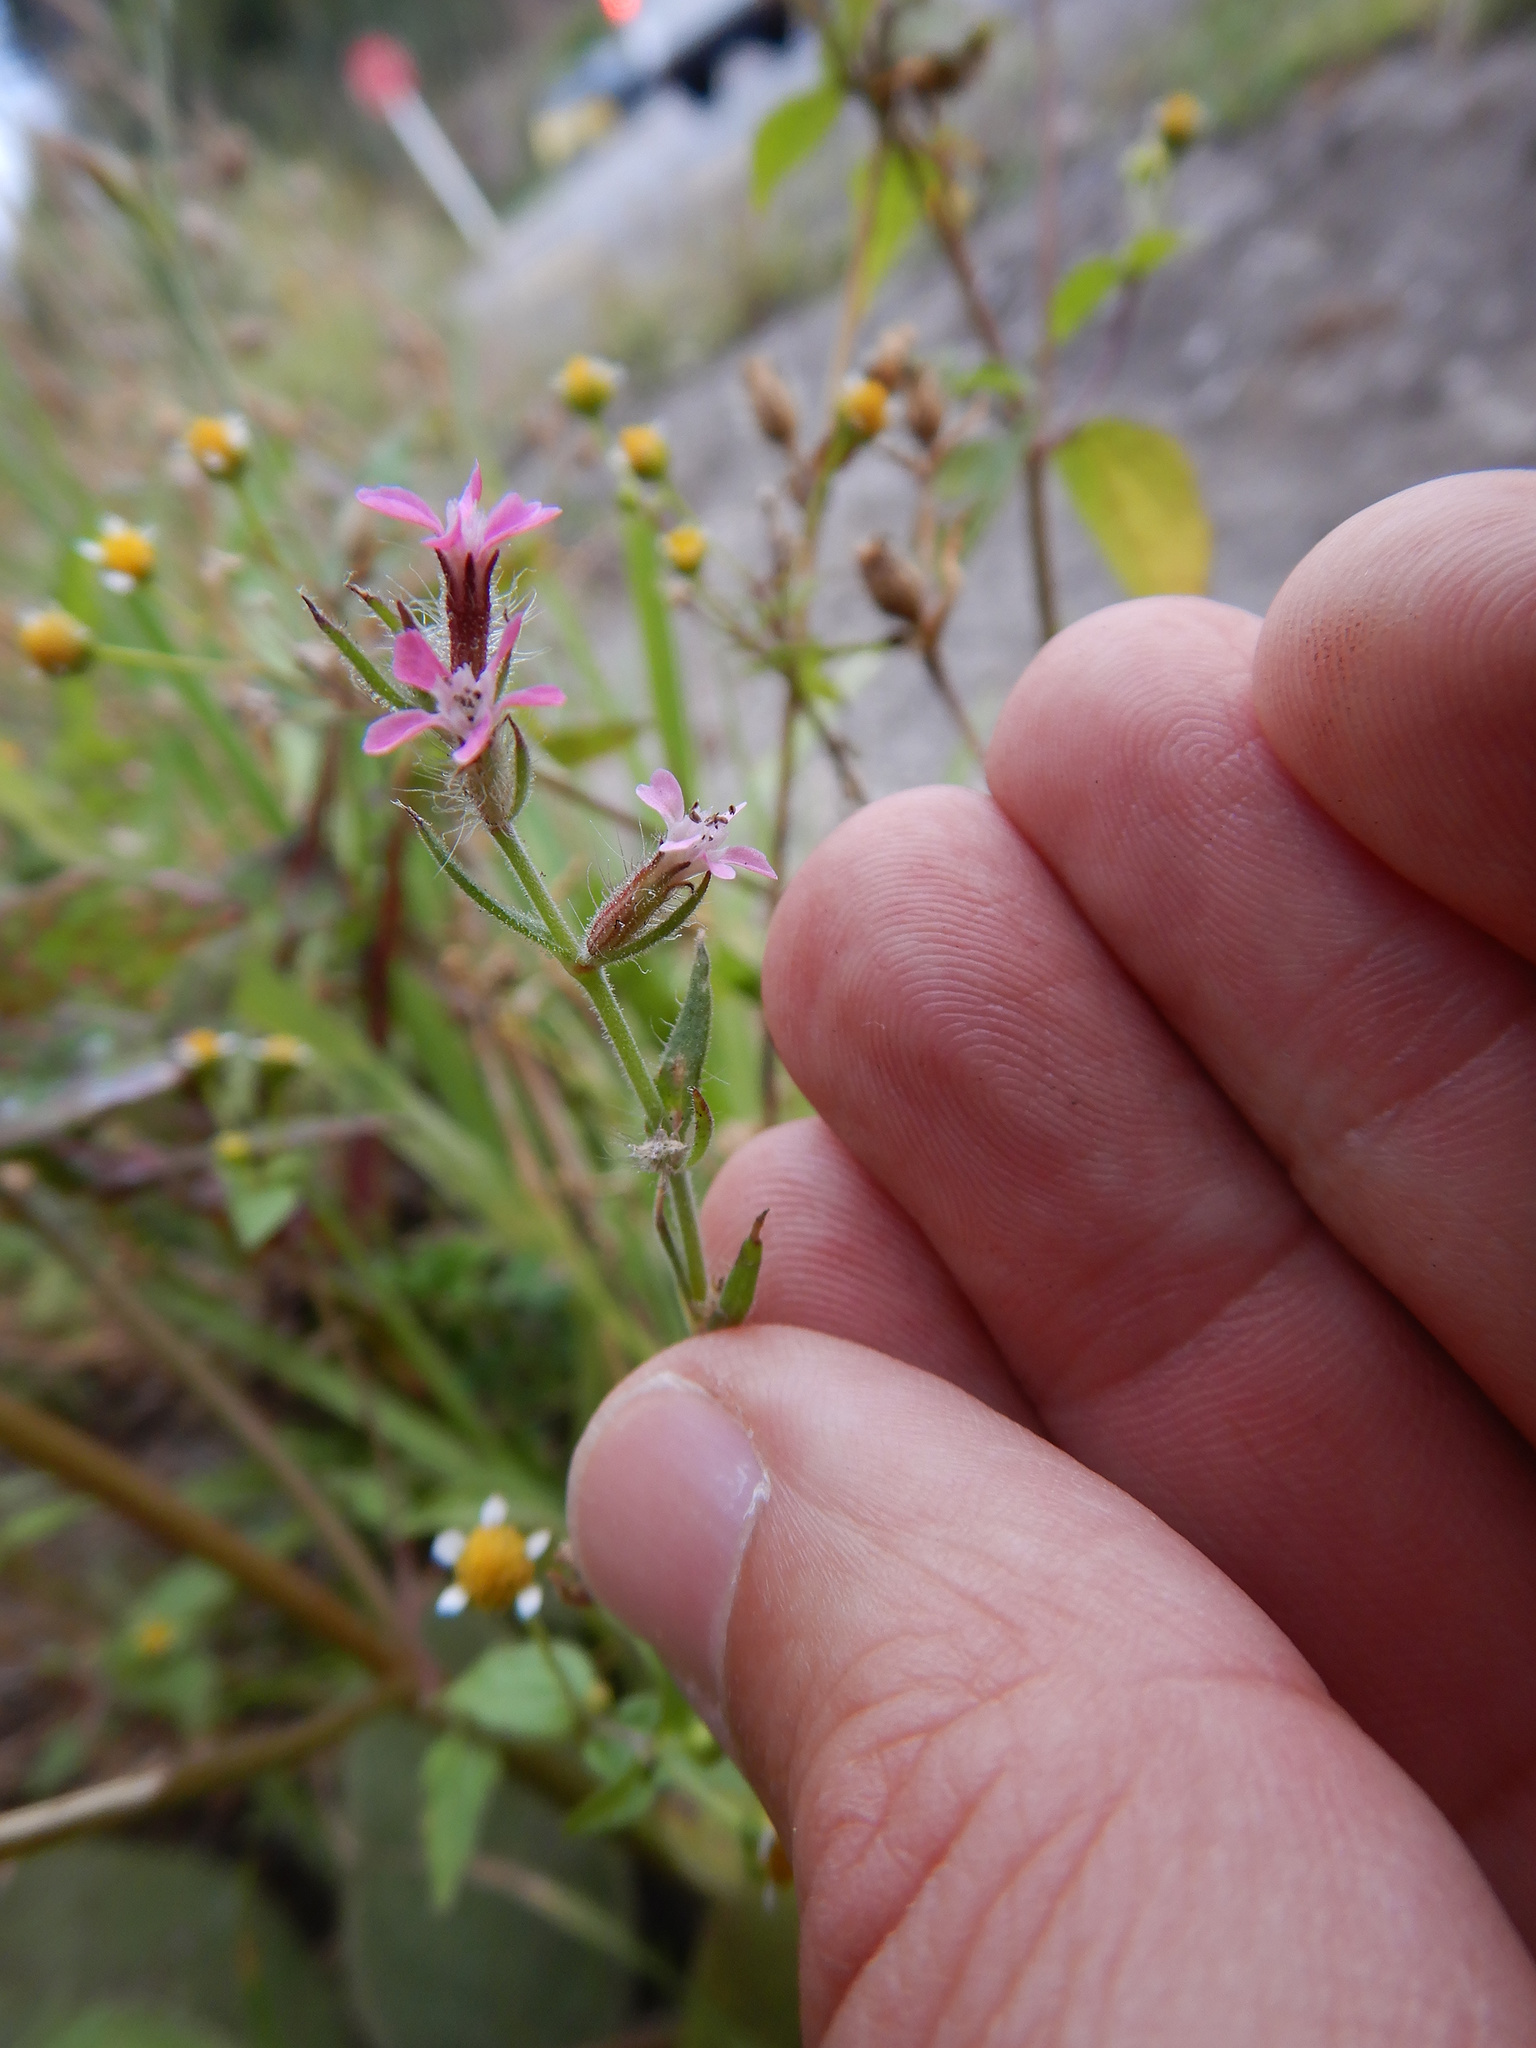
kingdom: Plantae
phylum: Tracheophyta
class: Magnoliopsida
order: Caryophyllales
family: Caryophyllaceae
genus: Silene
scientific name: Silene gallica
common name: Small-flowered catchfly
